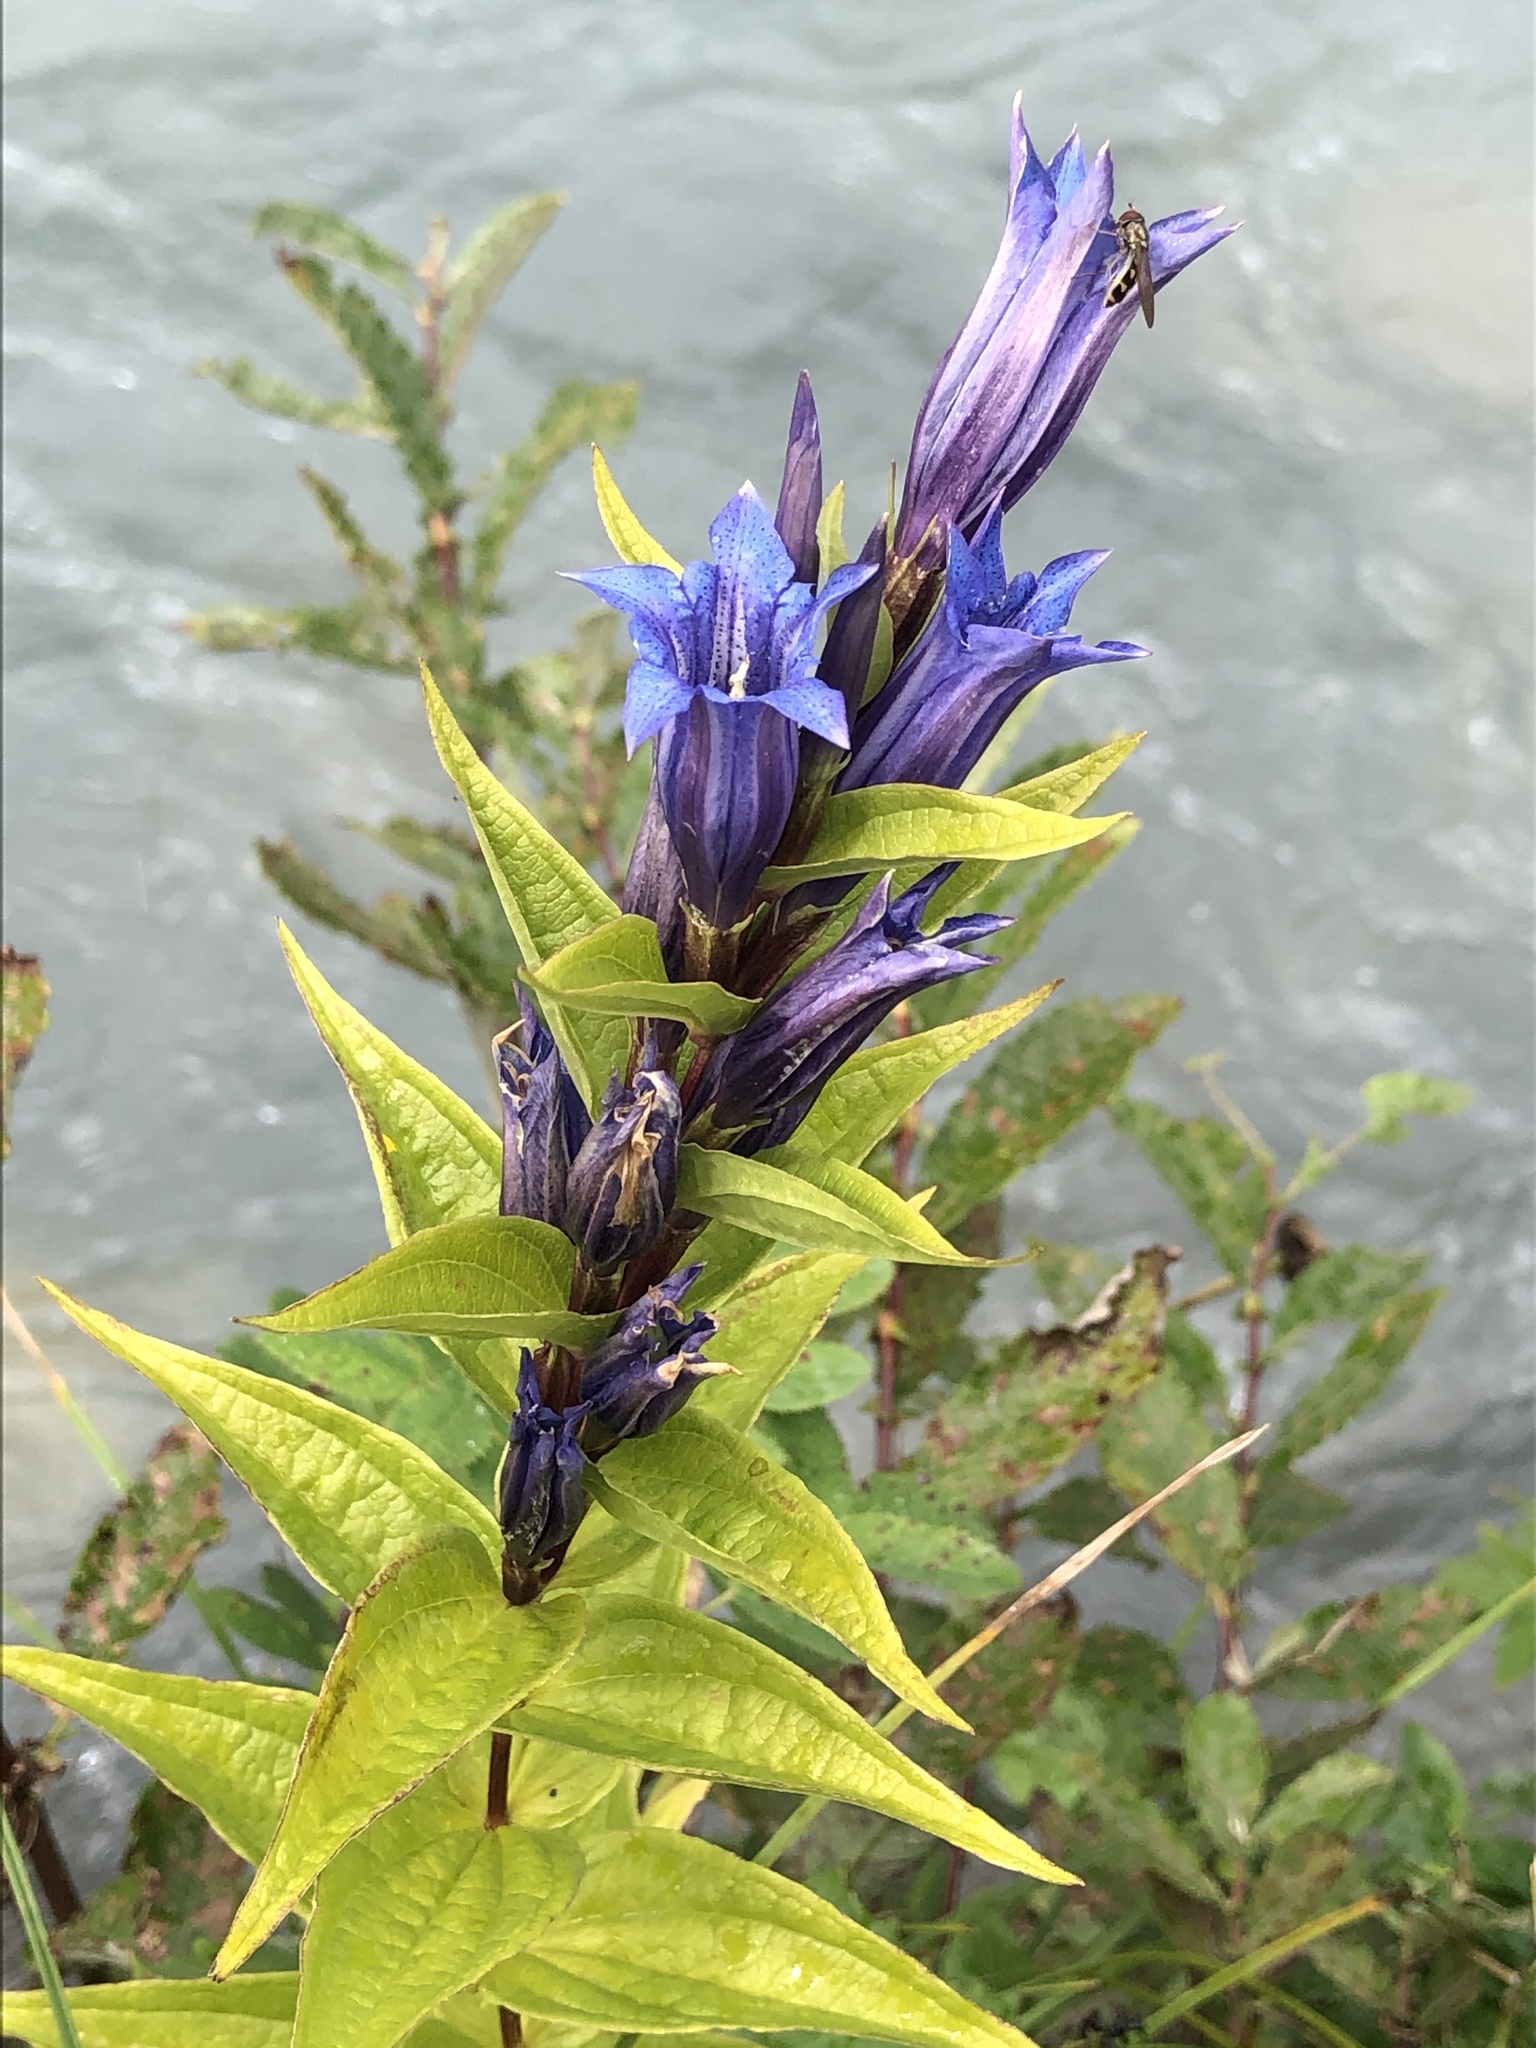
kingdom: Plantae
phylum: Tracheophyta
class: Magnoliopsida
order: Gentianales
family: Gentianaceae
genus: Gentiana
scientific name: Gentiana asclepiadea
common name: Willow gentian
